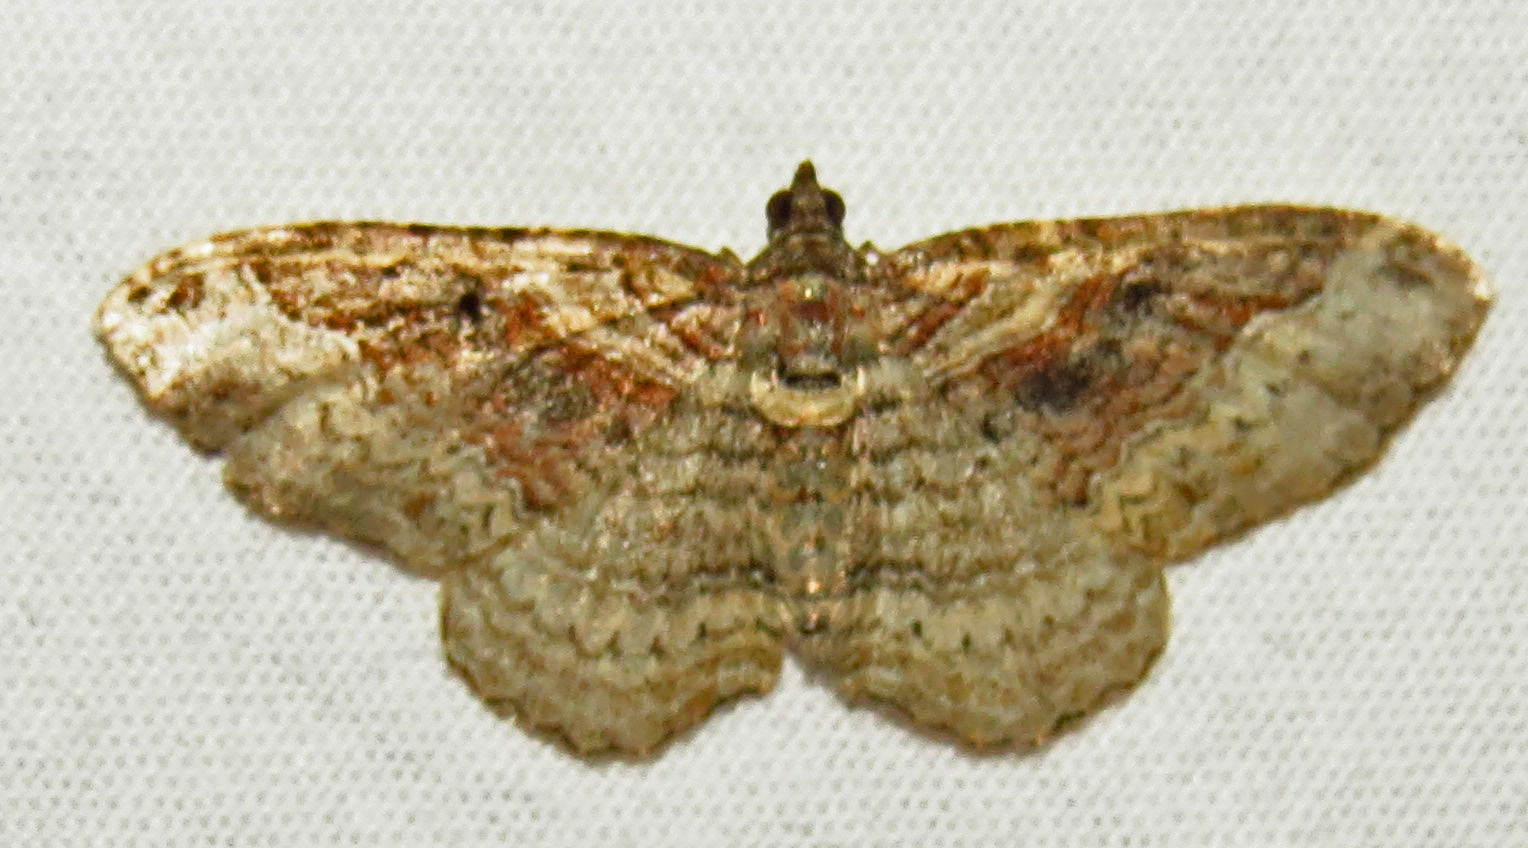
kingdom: Animalia
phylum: Arthropoda
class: Insecta
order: Lepidoptera
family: Geometridae
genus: Costaconvexa
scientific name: Costaconvexa centrostrigaria
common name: Bent-line carpet
